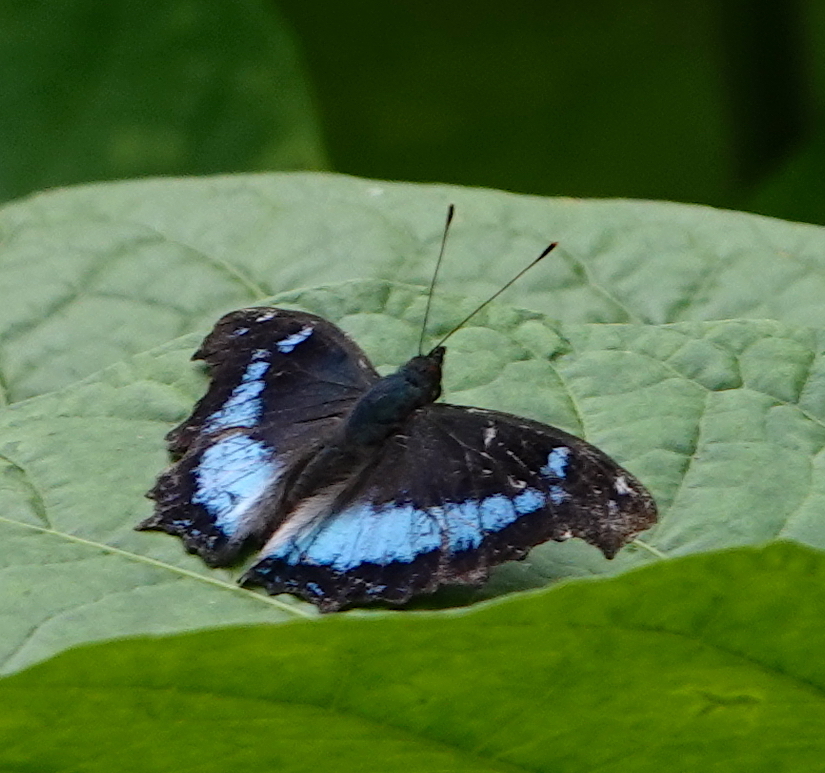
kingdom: Animalia
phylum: Arthropoda
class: Insecta
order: Lepidoptera
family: Nymphalidae
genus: Vanessa
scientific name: Vanessa Kaniska canace
